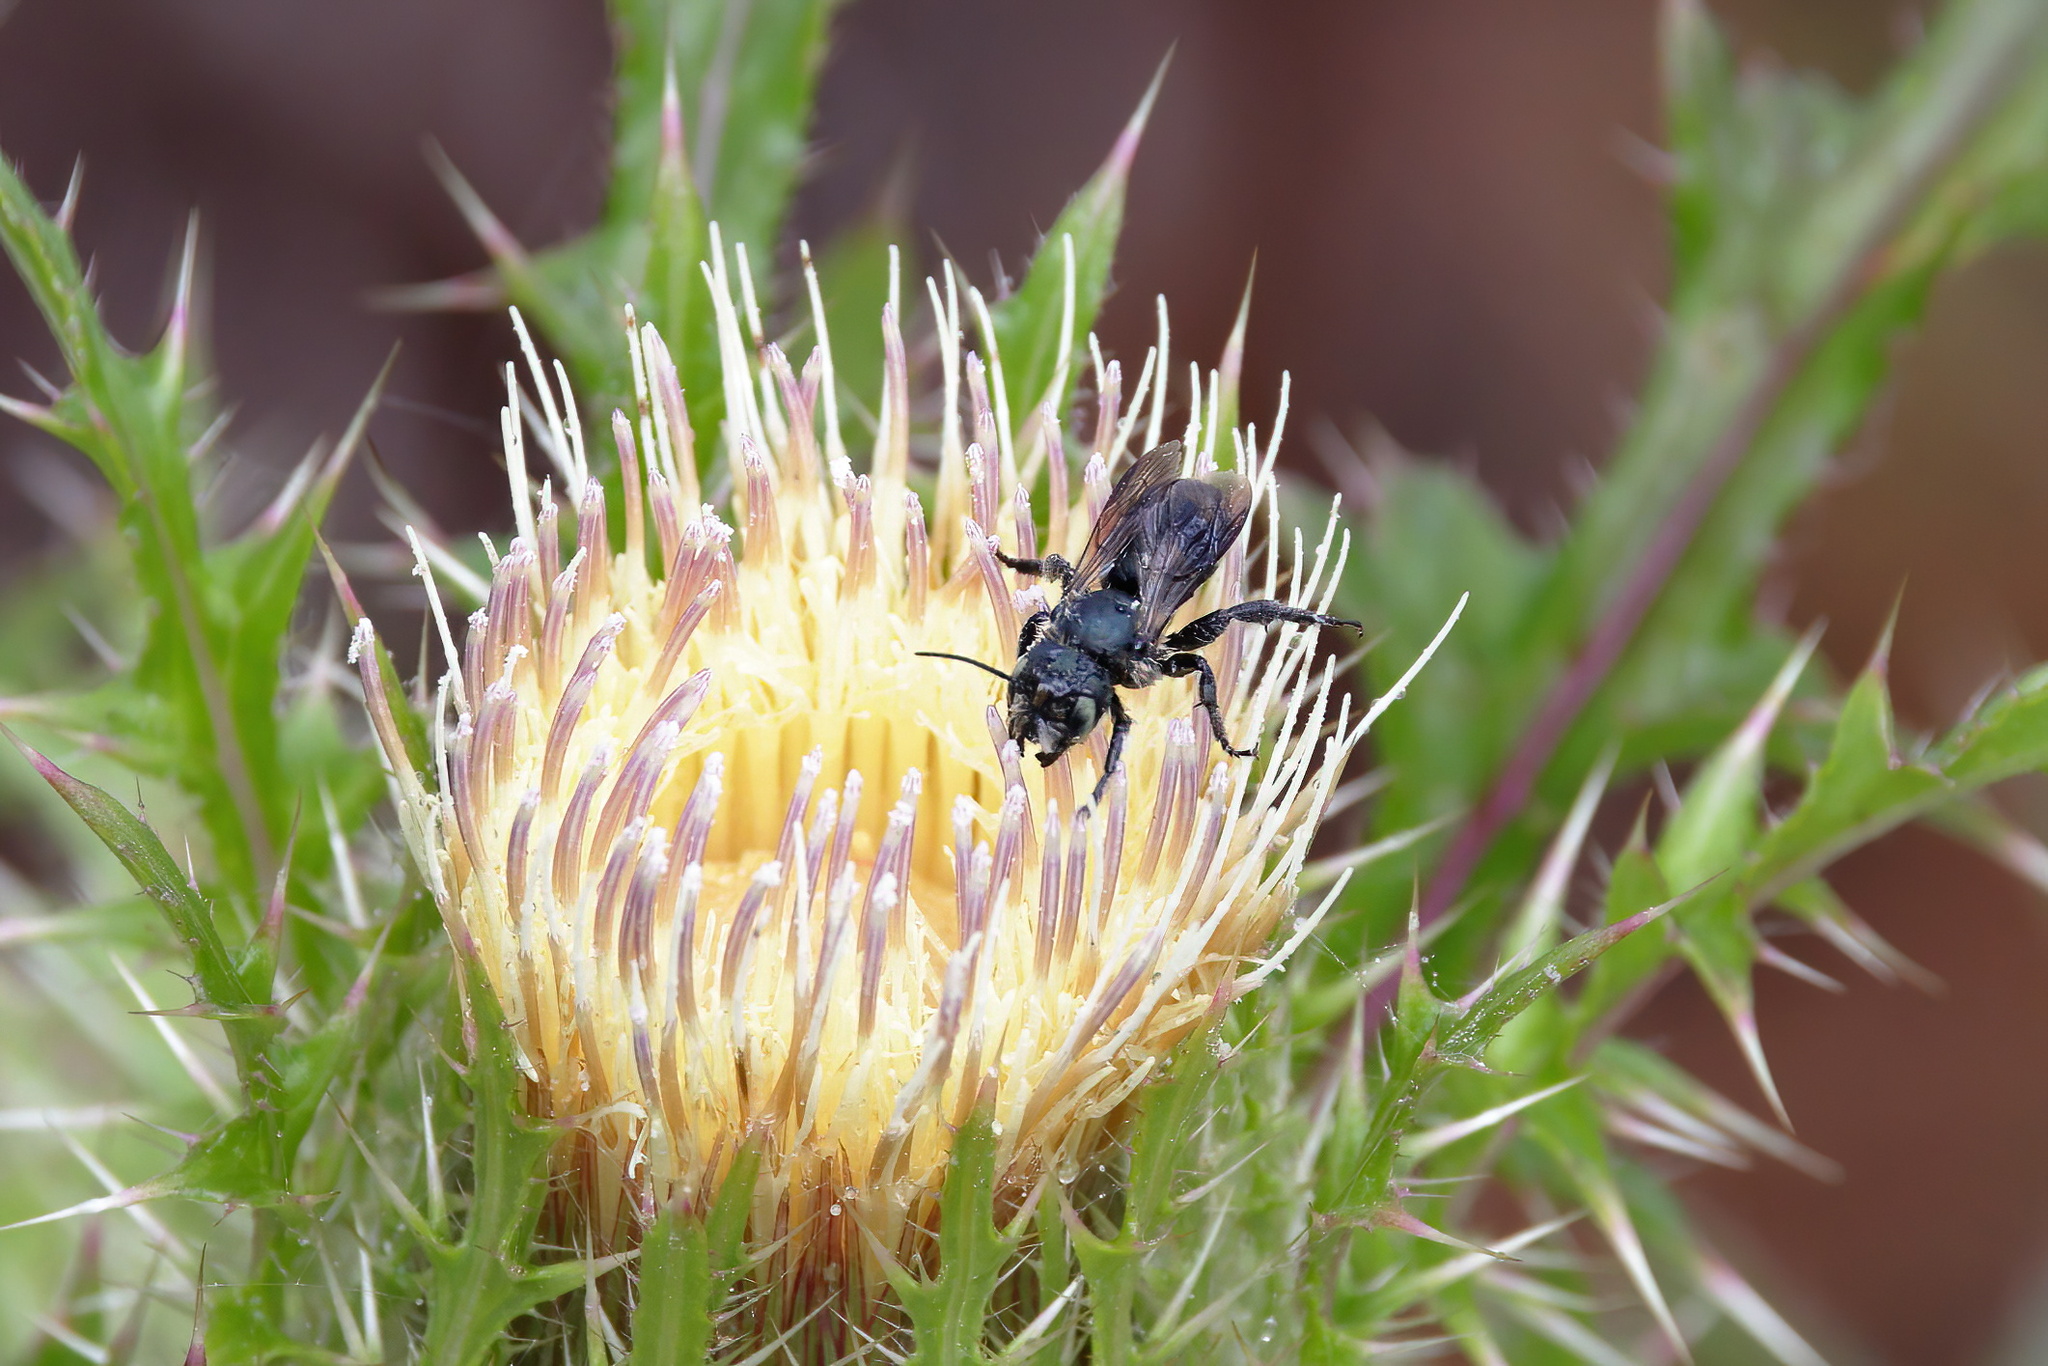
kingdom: Animalia
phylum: Arthropoda
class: Insecta
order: Hymenoptera
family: Megachilidae
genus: Osmia
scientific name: Osmia chalybea
